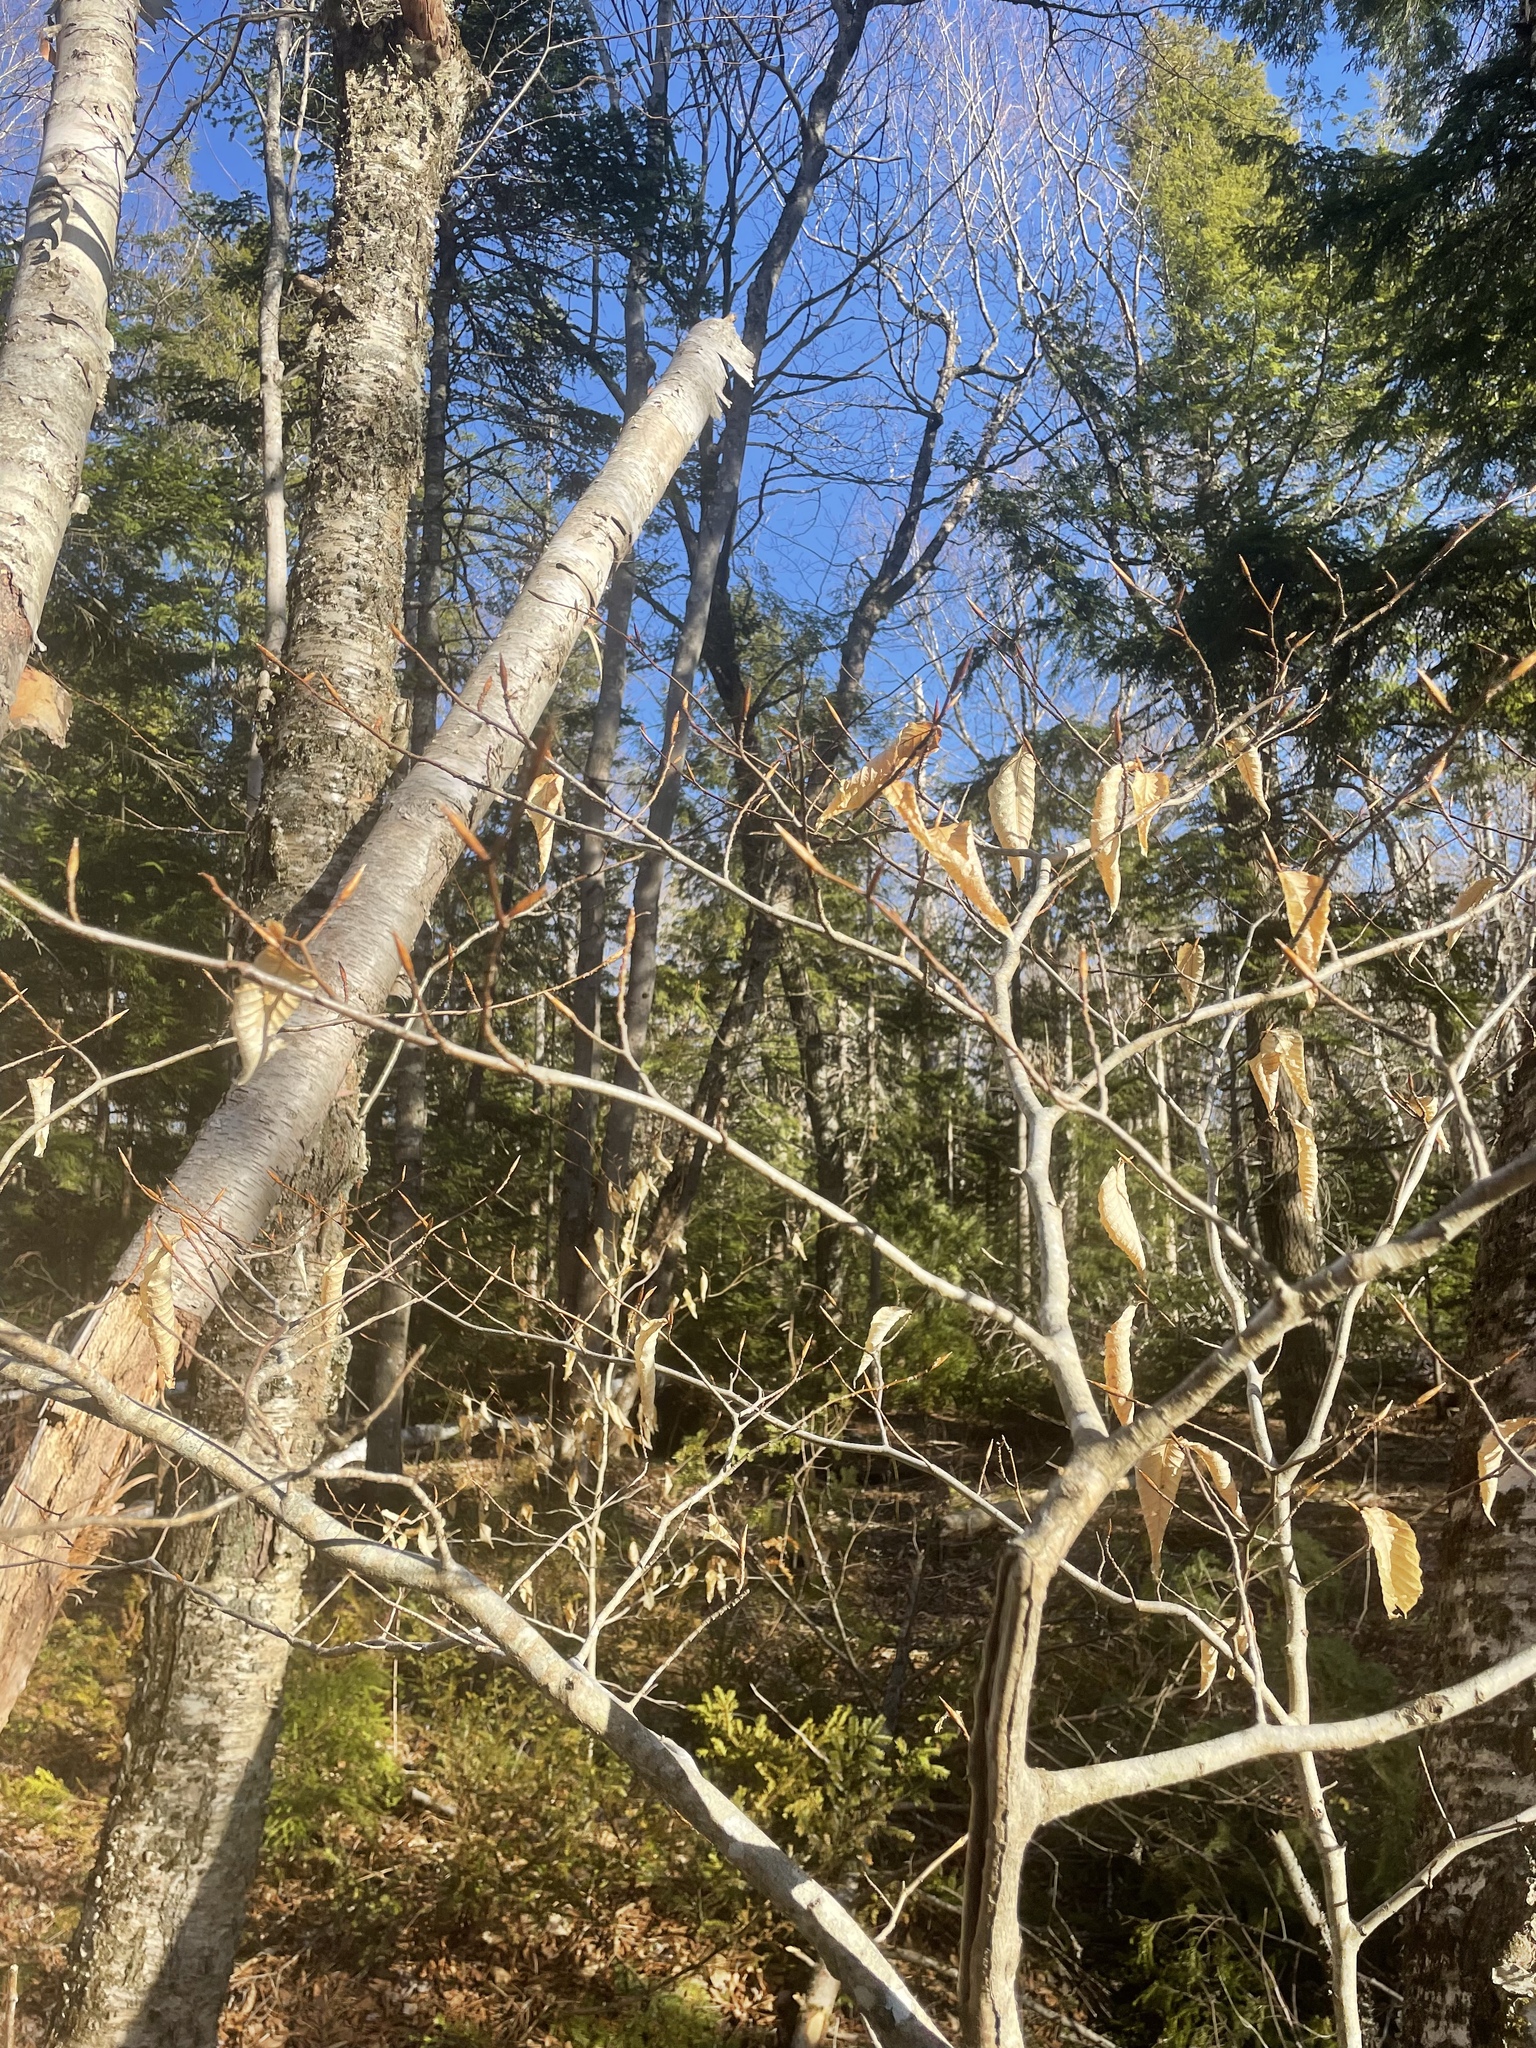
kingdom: Plantae
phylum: Tracheophyta
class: Magnoliopsida
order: Fagales
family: Fagaceae
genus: Fagus
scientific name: Fagus grandifolia
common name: American beech
